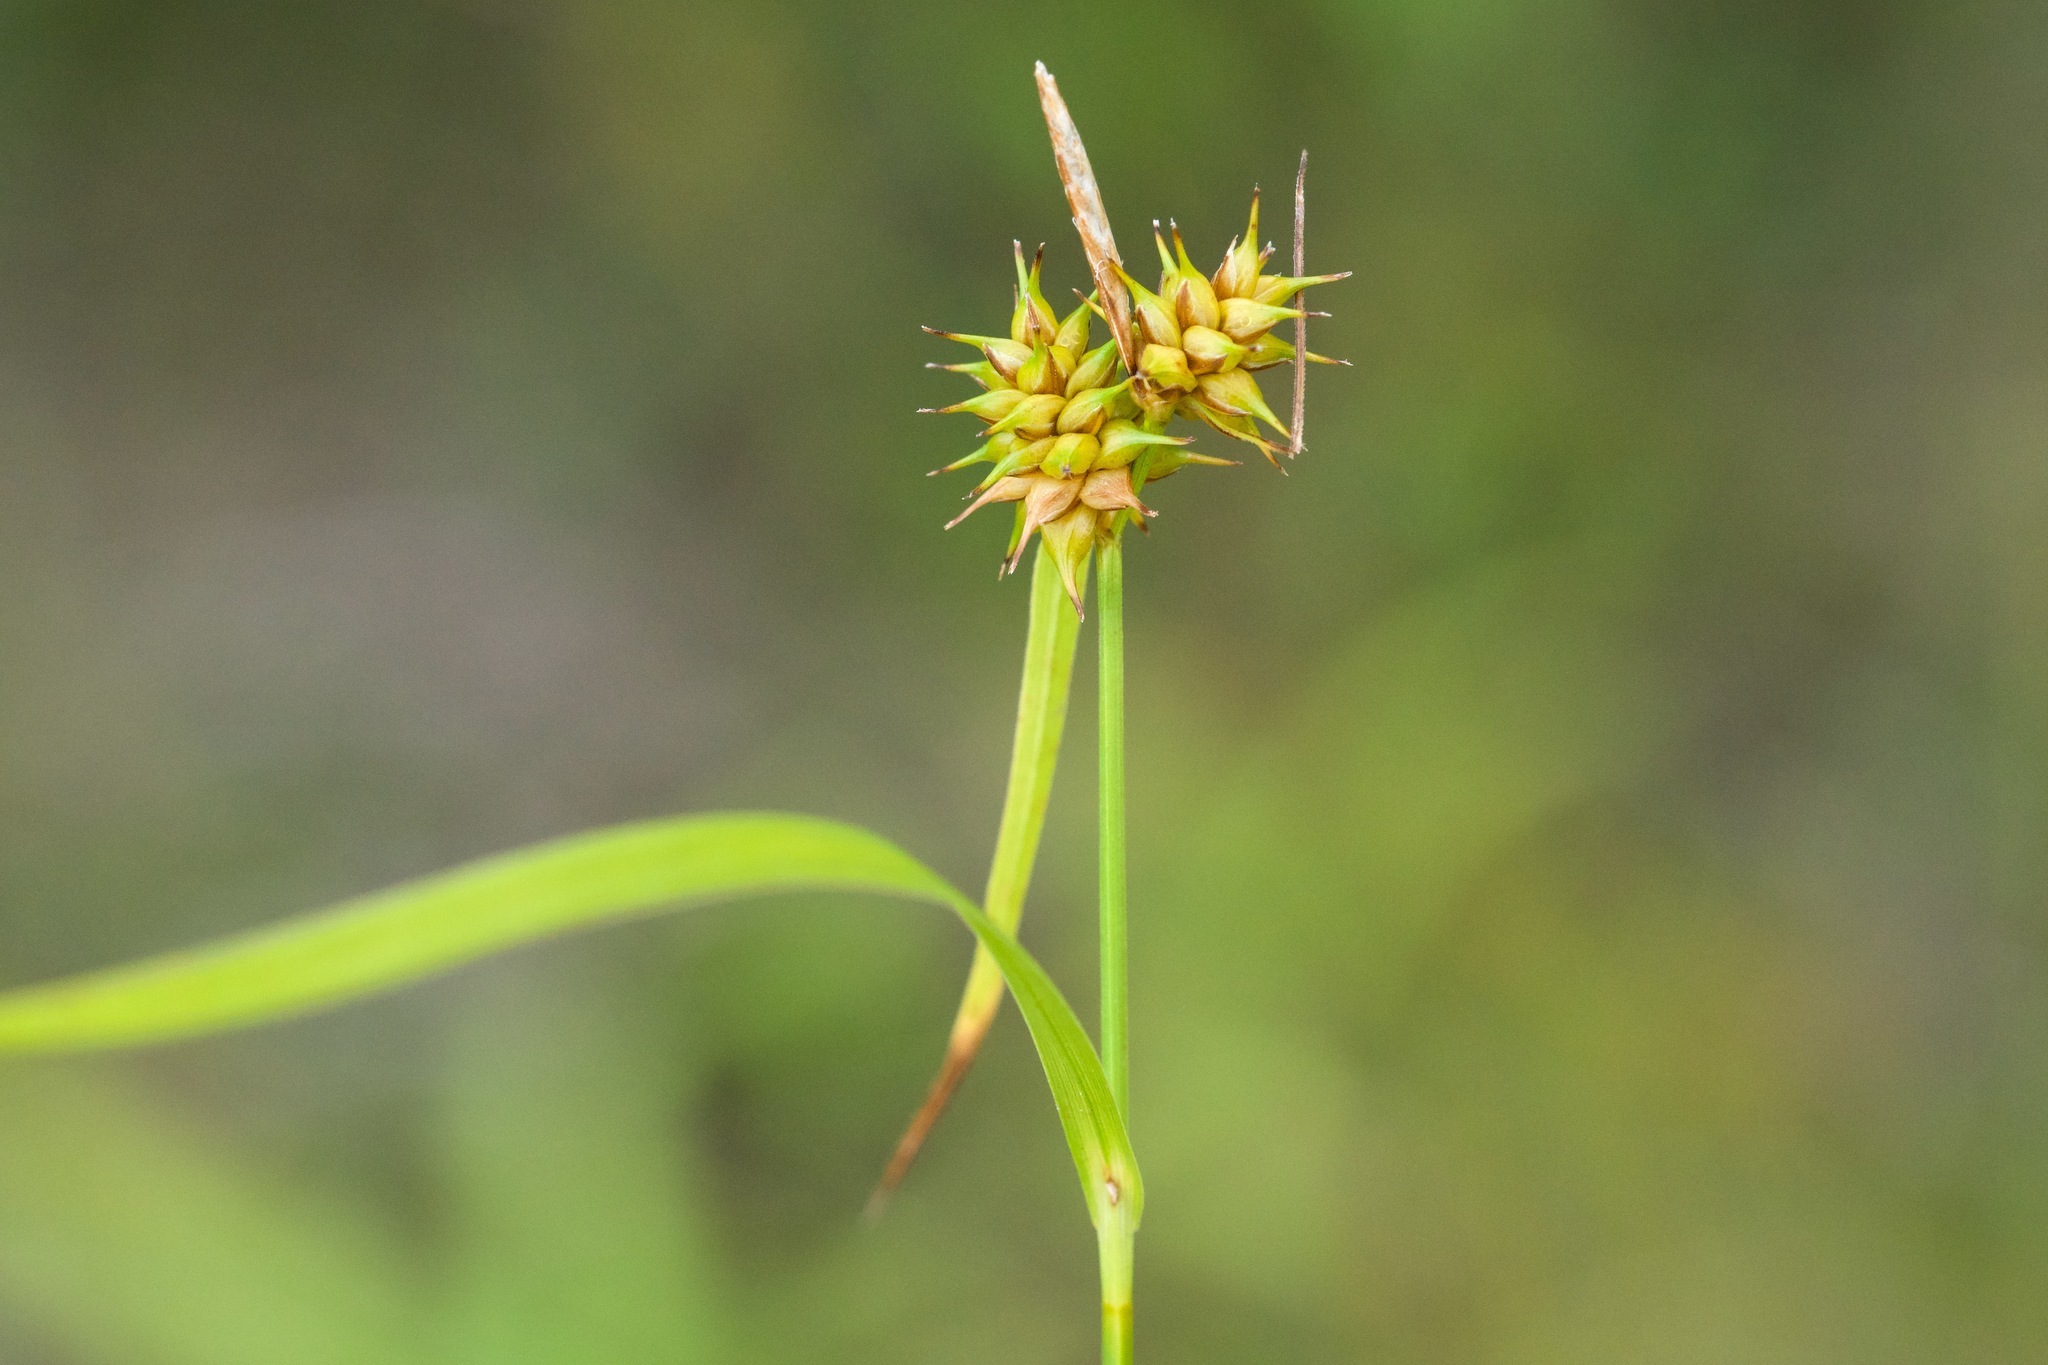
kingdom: Plantae
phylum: Tracheophyta
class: Liliopsida
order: Poales
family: Cyperaceae
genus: Carex
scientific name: Carex flava
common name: Large yellow-sedge
